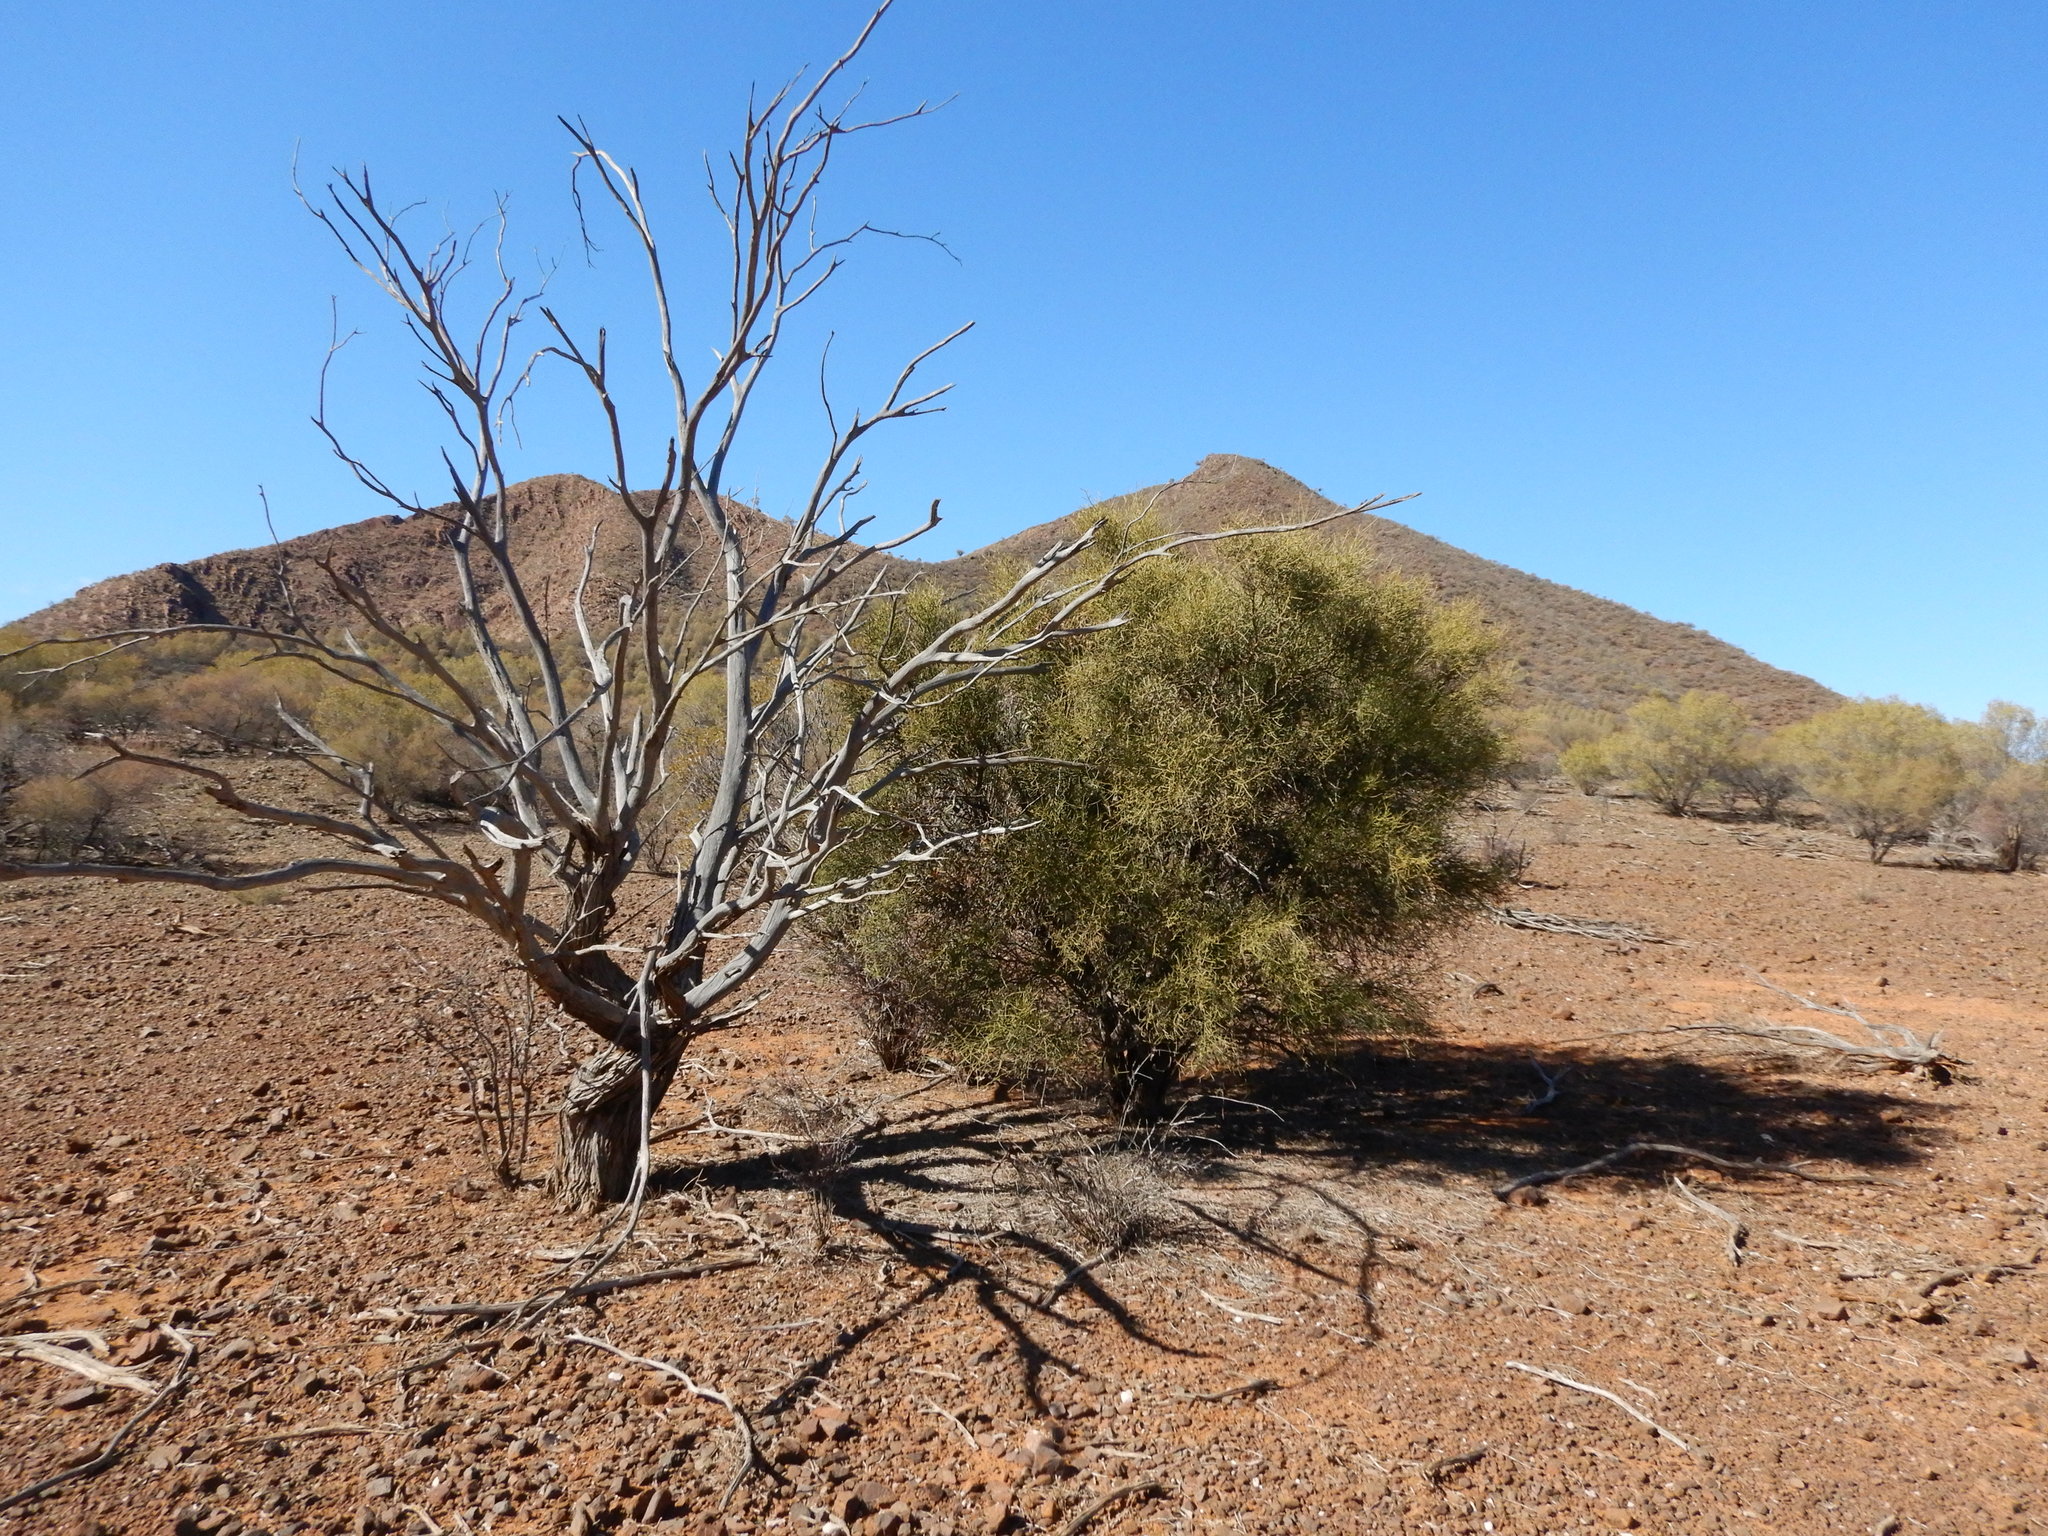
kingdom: Plantae
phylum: Tracheophyta
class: Magnoliopsida
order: Santalales
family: Santalaceae
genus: Exocarpos
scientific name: Exocarpos aphyllus
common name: Leafless ballart
